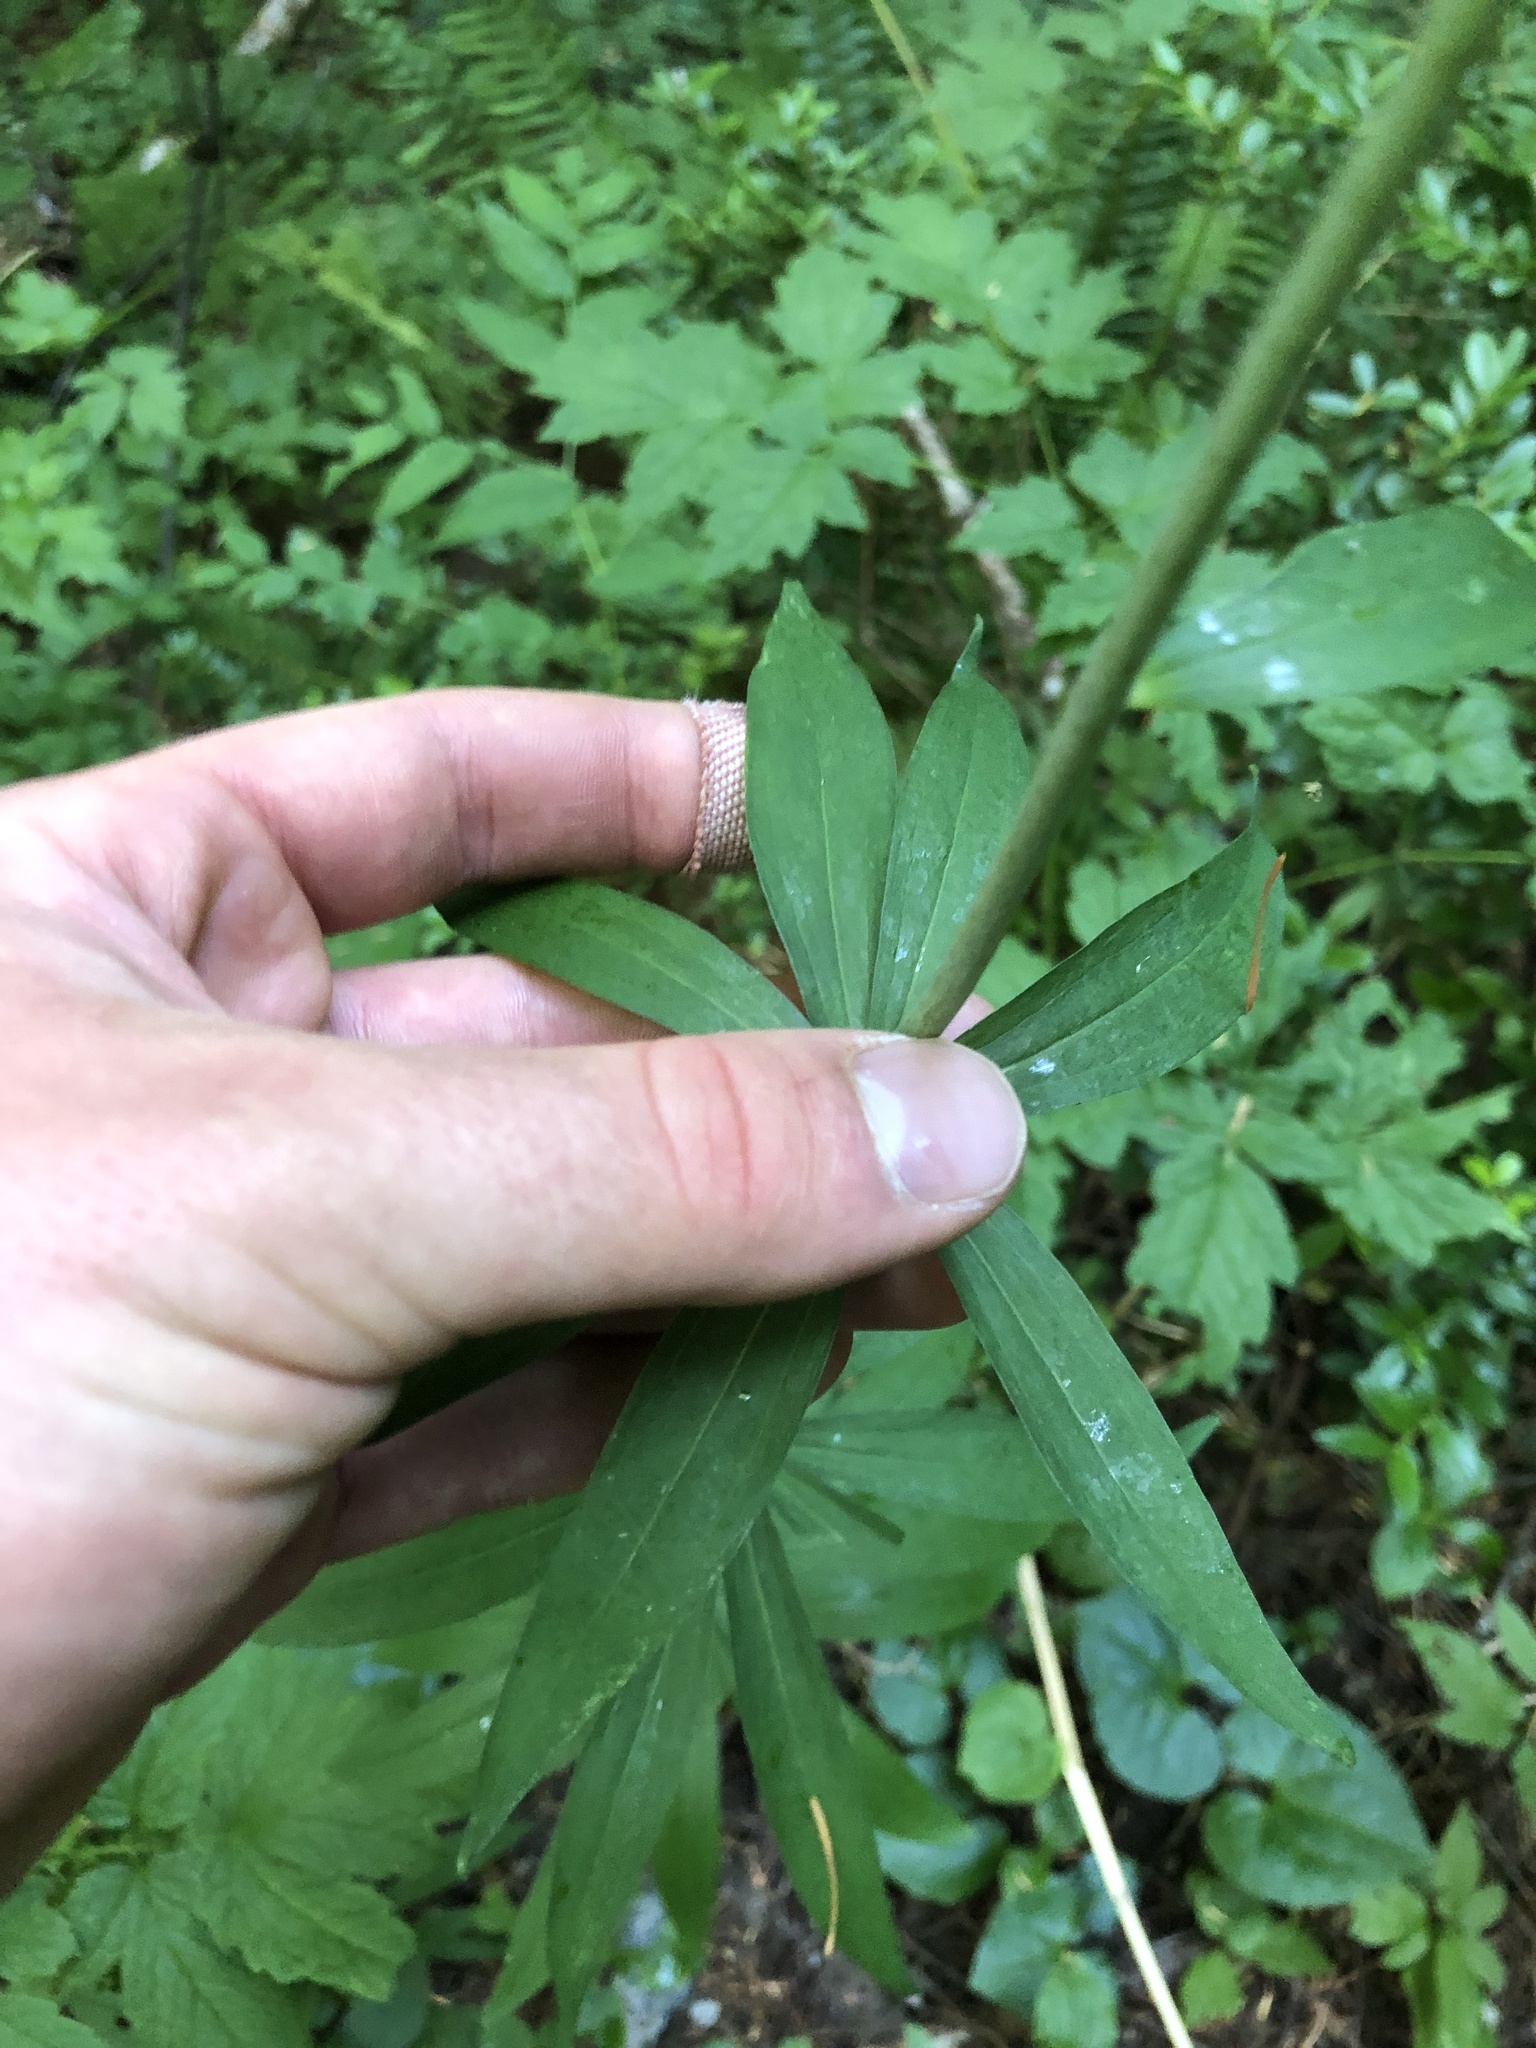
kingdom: Plantae
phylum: Tracheophyta
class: Liliopsida
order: Liliales
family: Liliaceae
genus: Lilium
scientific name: Lilium columbianum
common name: Columbia lily
